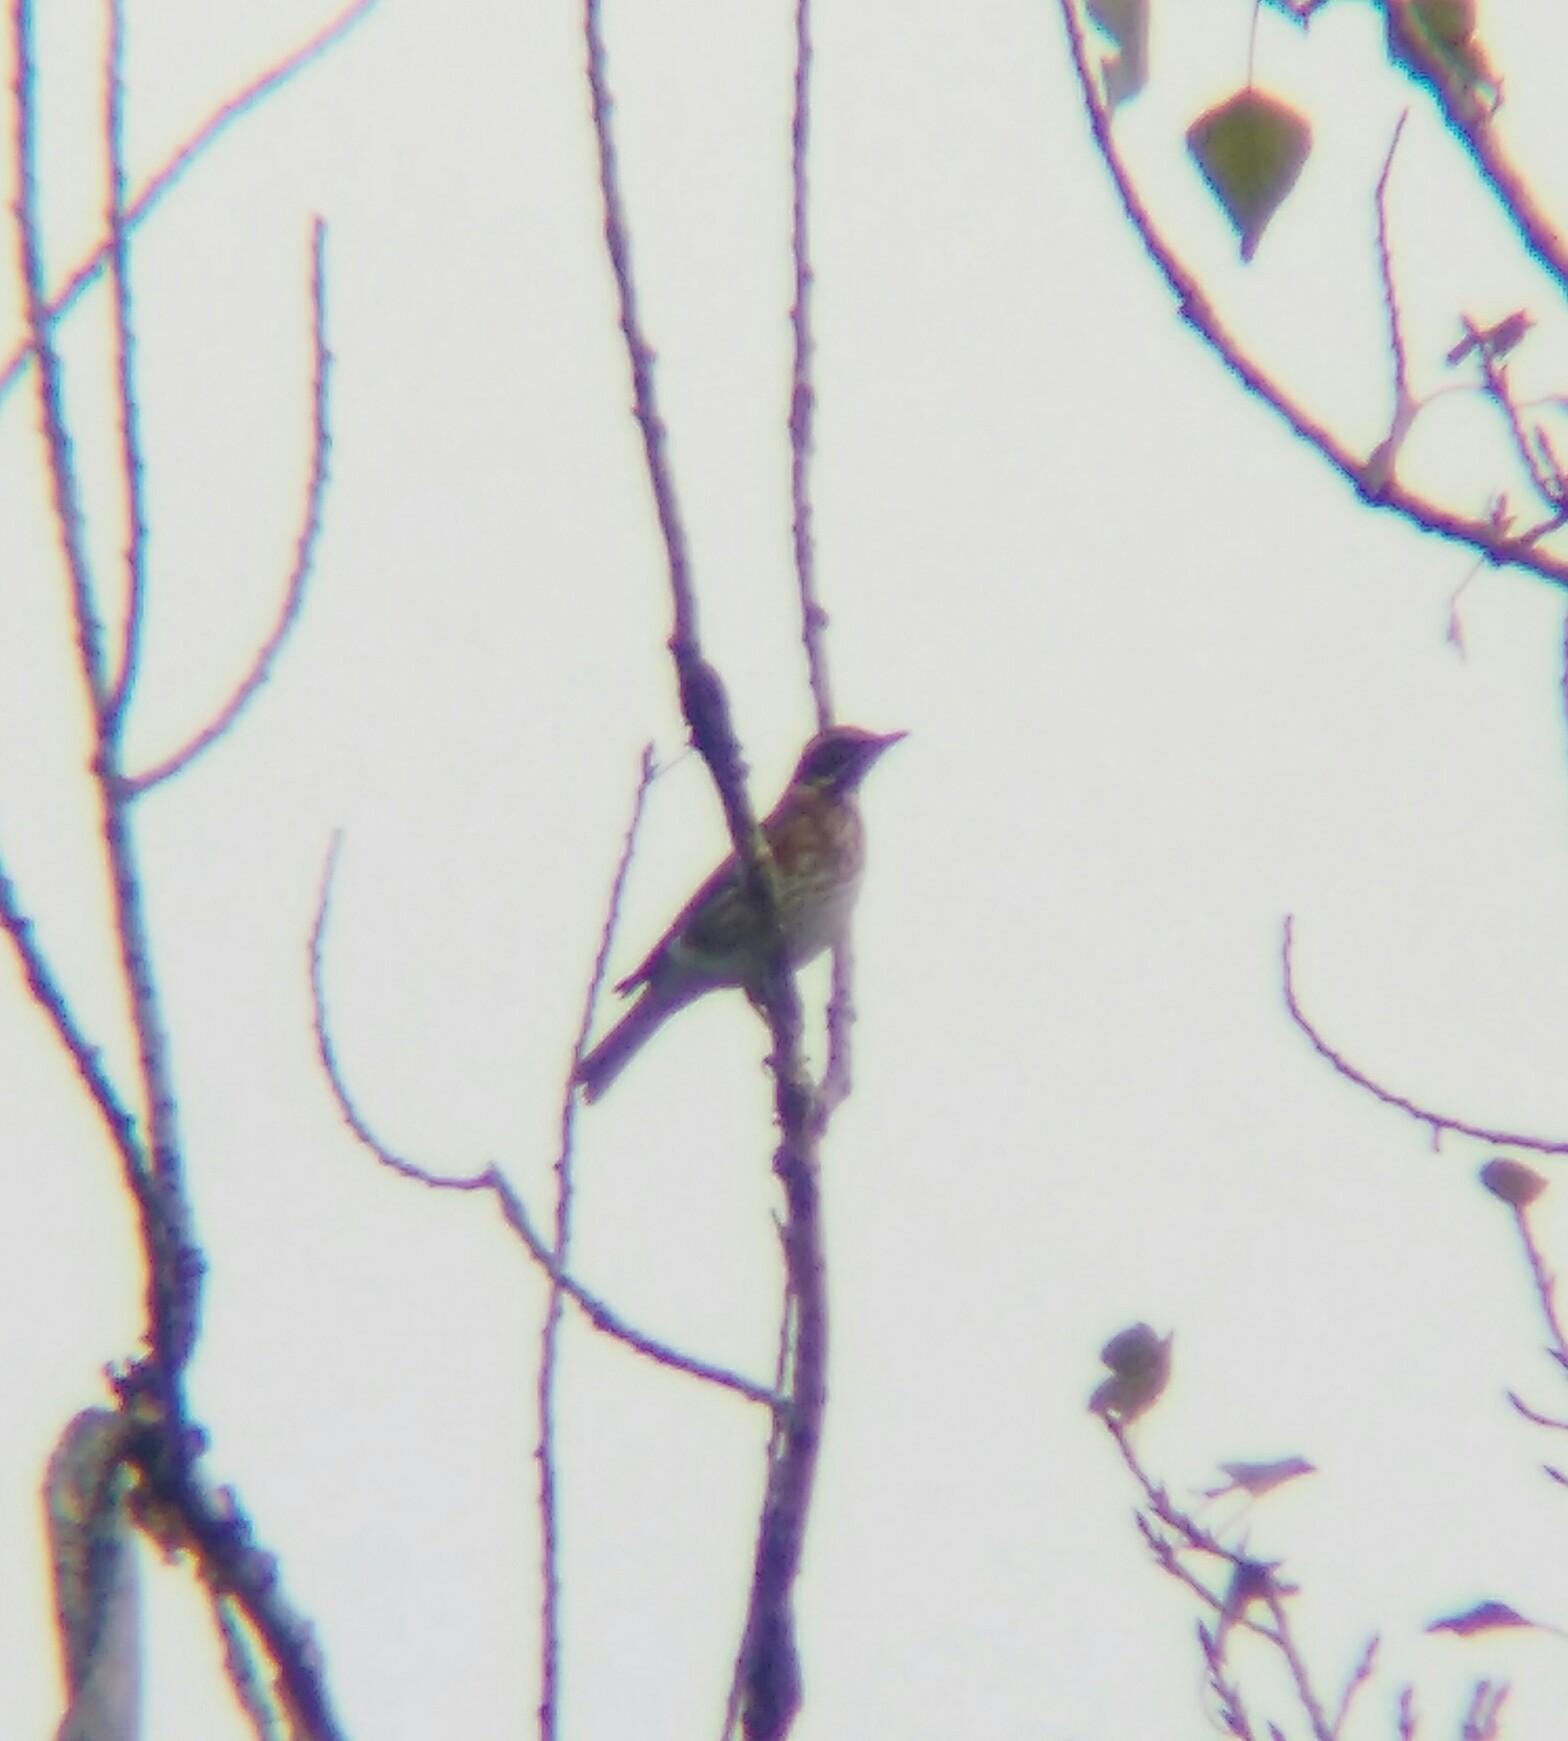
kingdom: Animalia
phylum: Chordata
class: Aves
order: Passeriformes
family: Turdidae
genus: Turdus
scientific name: Turdus iliacus
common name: Redwing
